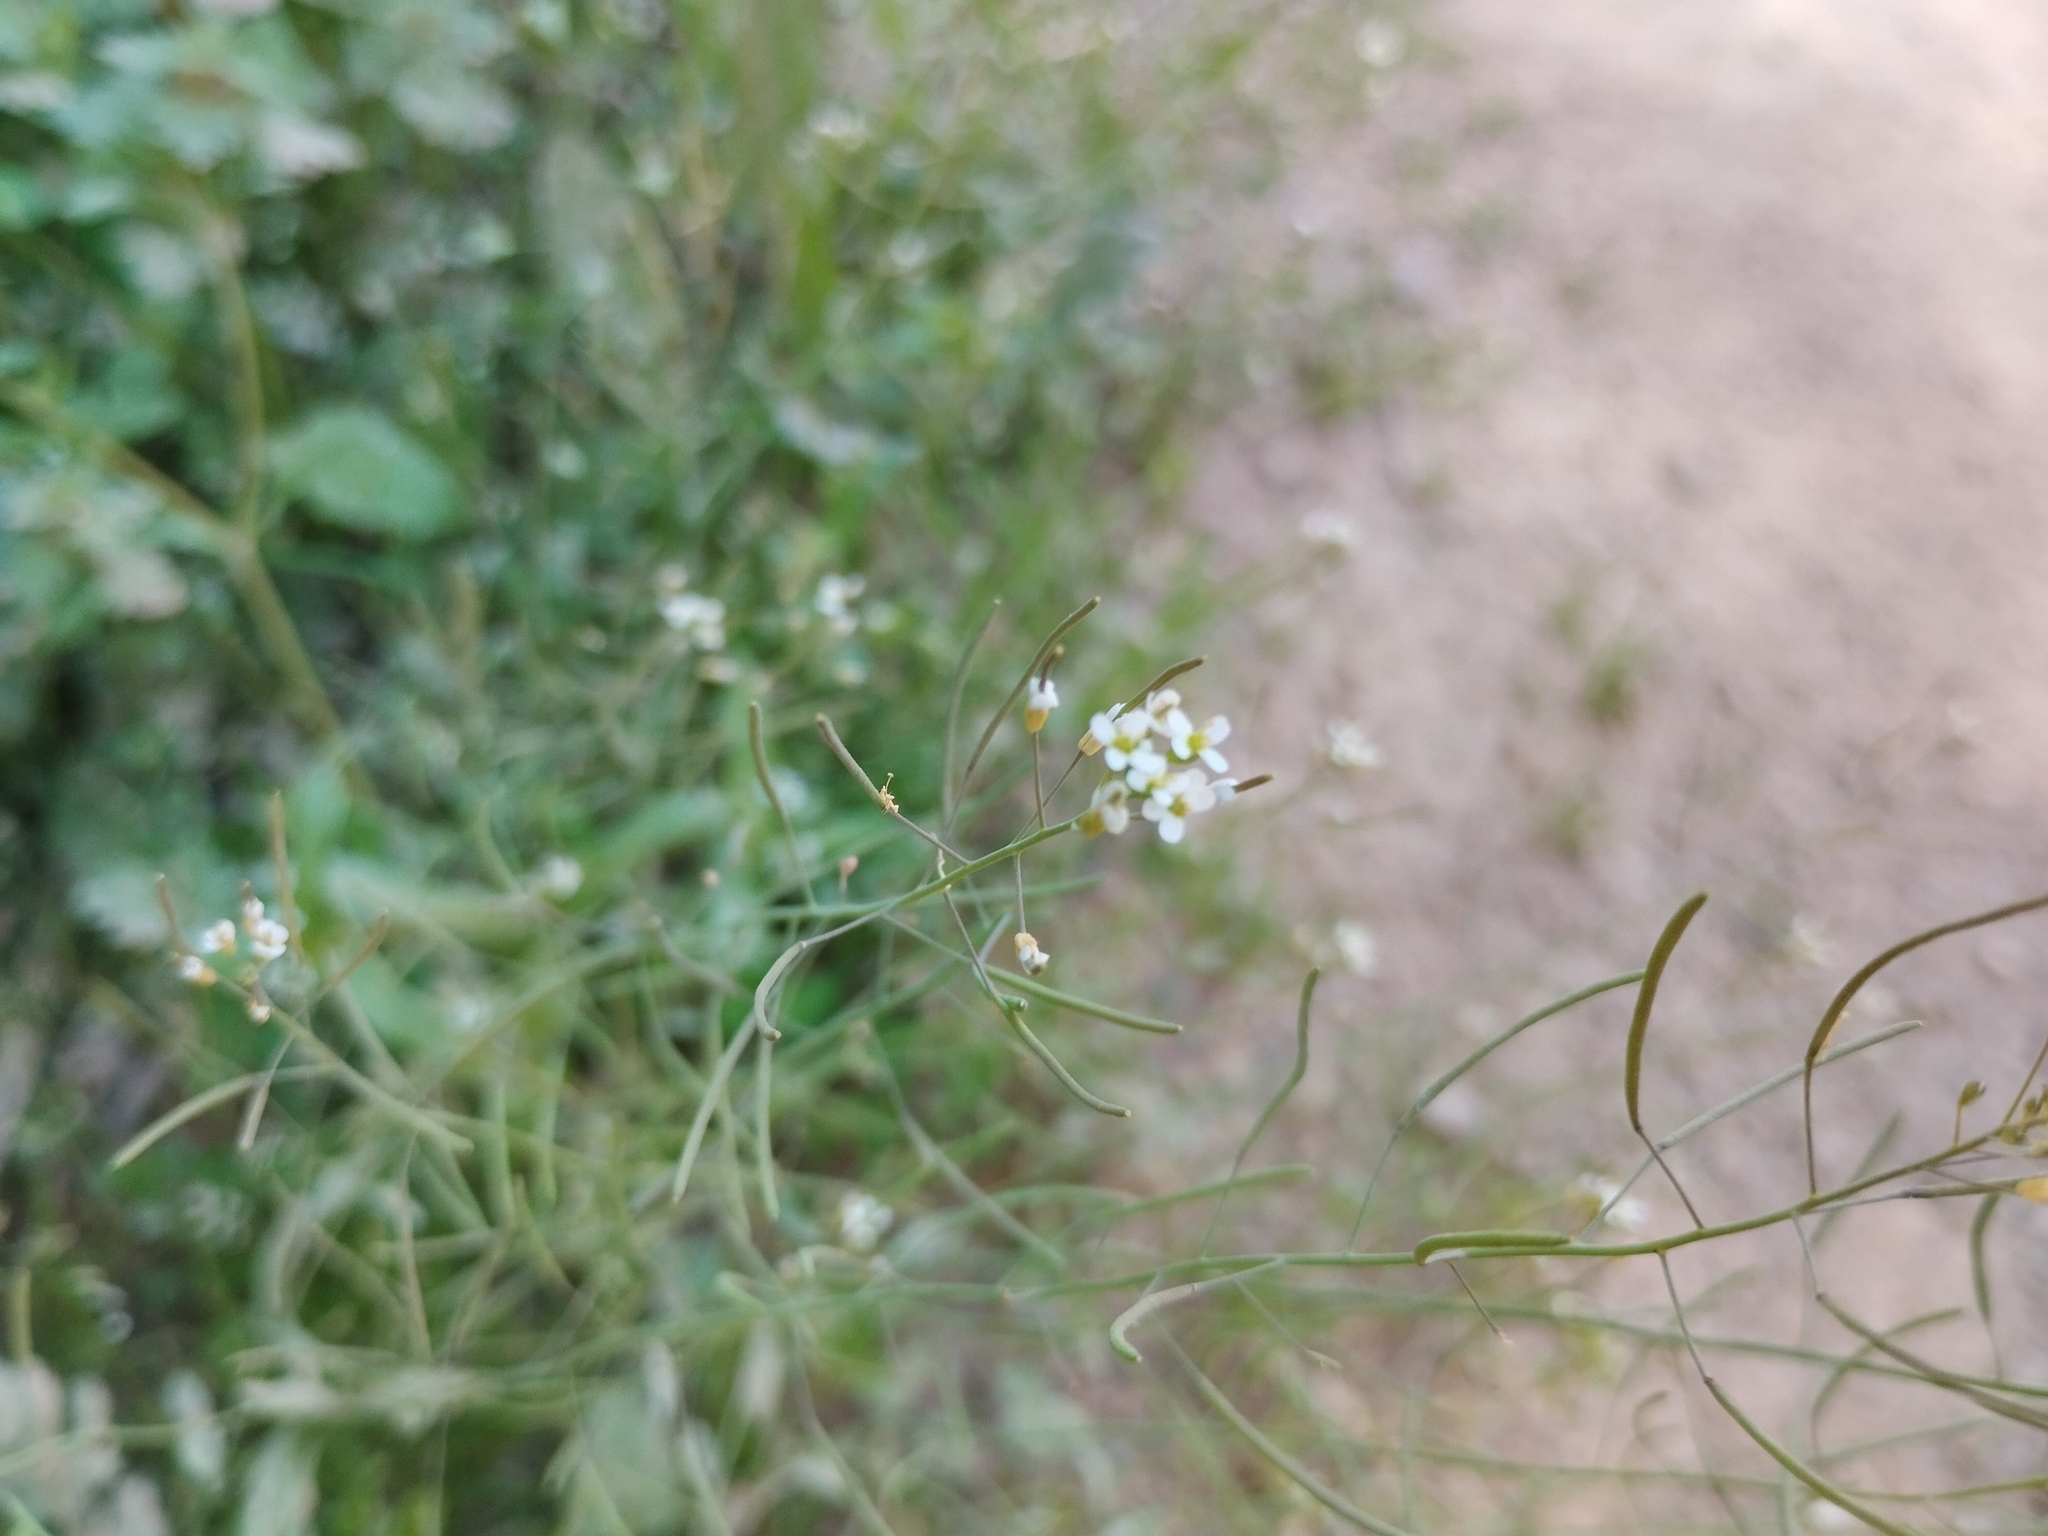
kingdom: Plantae
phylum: Tracheophyta
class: Magnoliopsida
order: Brassicales
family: Brassicaceae
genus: Arabidopsis
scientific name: Arabidopsis thaliana
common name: Thale cress
